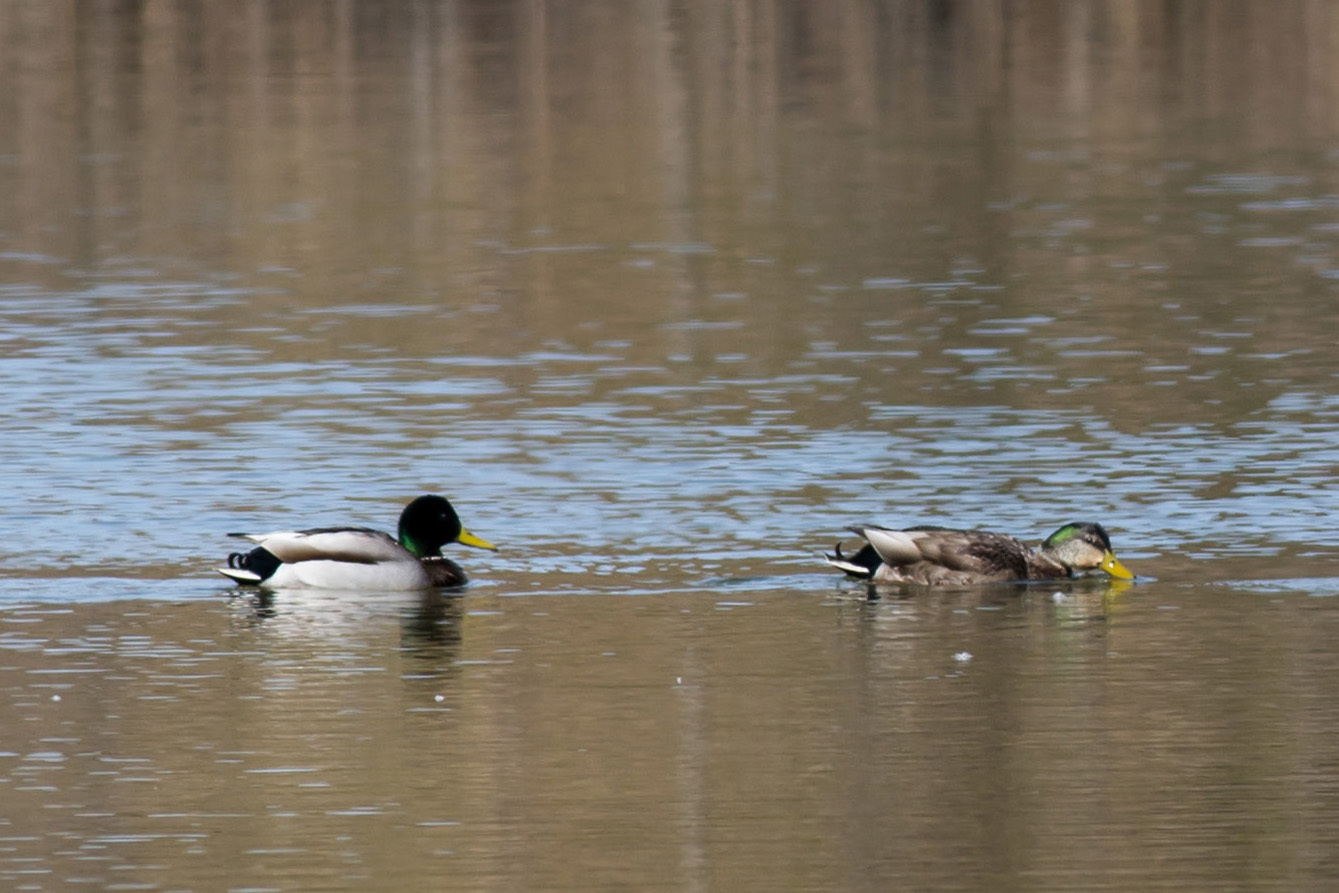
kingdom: Animalia
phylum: Chordata
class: Aves
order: Anseriformes
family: Anatidae
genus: Anas
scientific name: Anas
